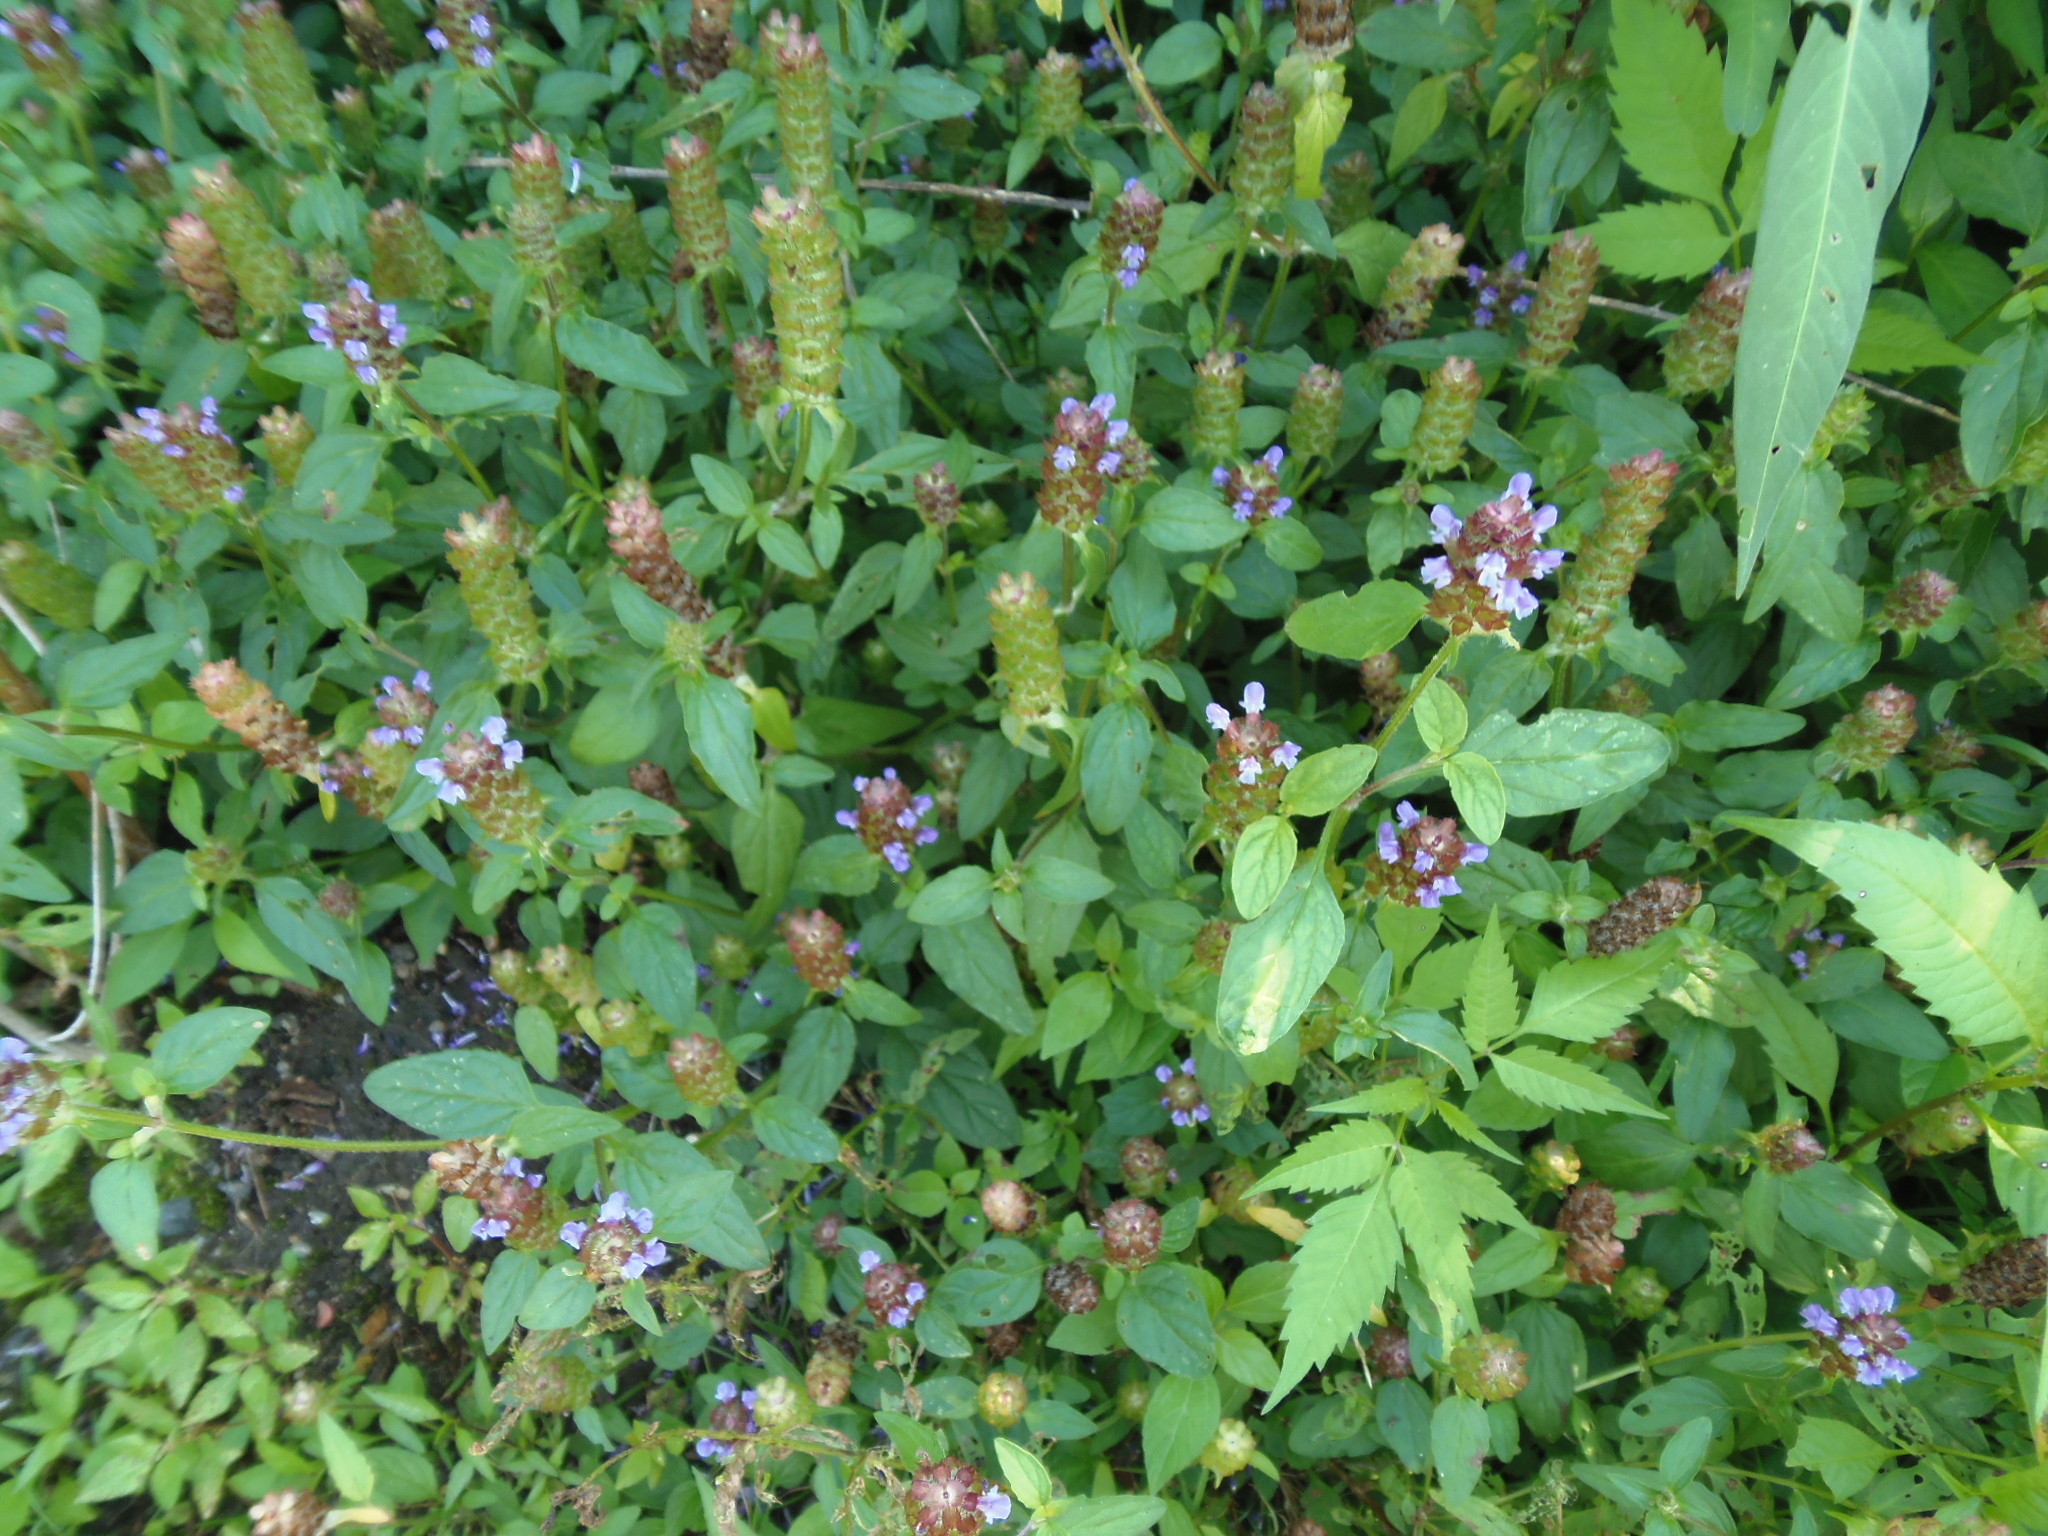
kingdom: Plantae
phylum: Tracheophyta
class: Magnoliopsida
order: Lamiales
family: Lamiaceae
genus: Prunella
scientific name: Prunella vulgaris
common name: Heal-all
